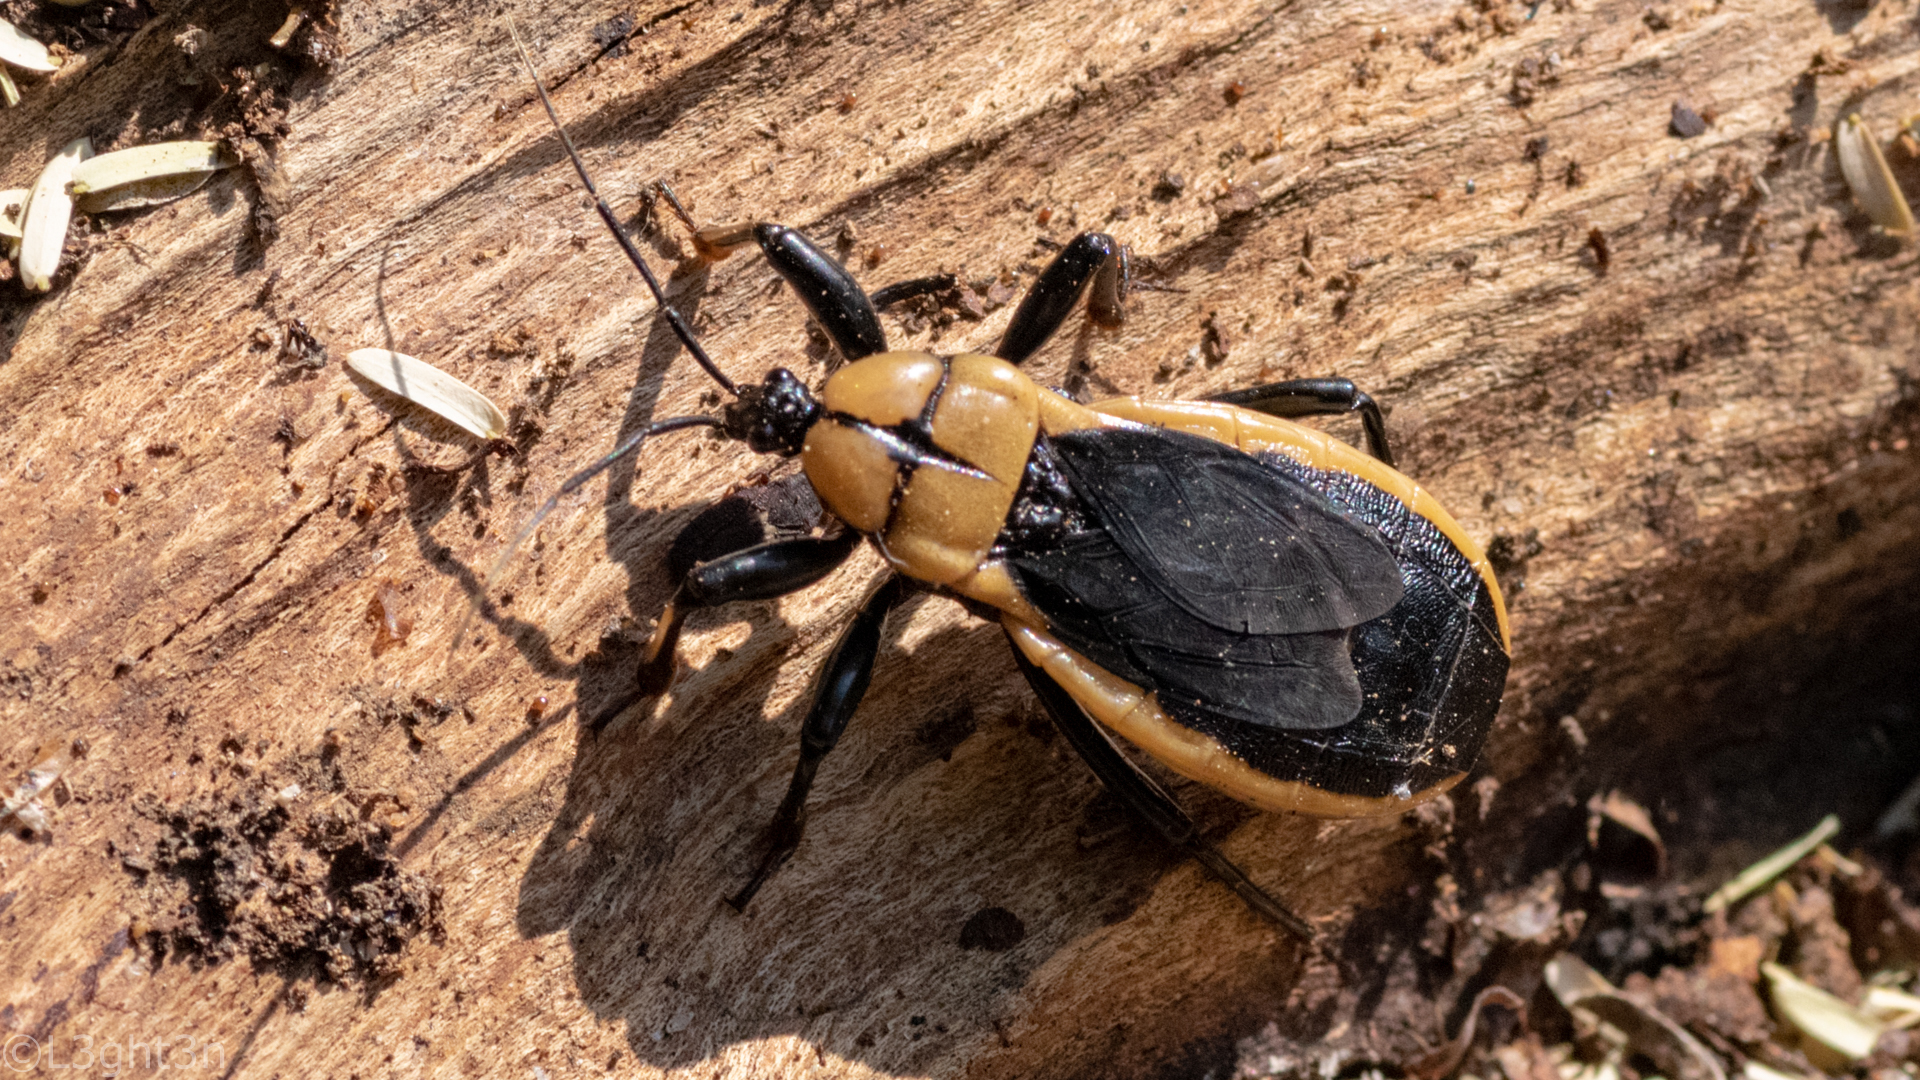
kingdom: Animalia
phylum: Arthropoda
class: Insecta
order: Hemiptera
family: Reduviidae
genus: Ectrichodia
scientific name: Ectrichodia crux
